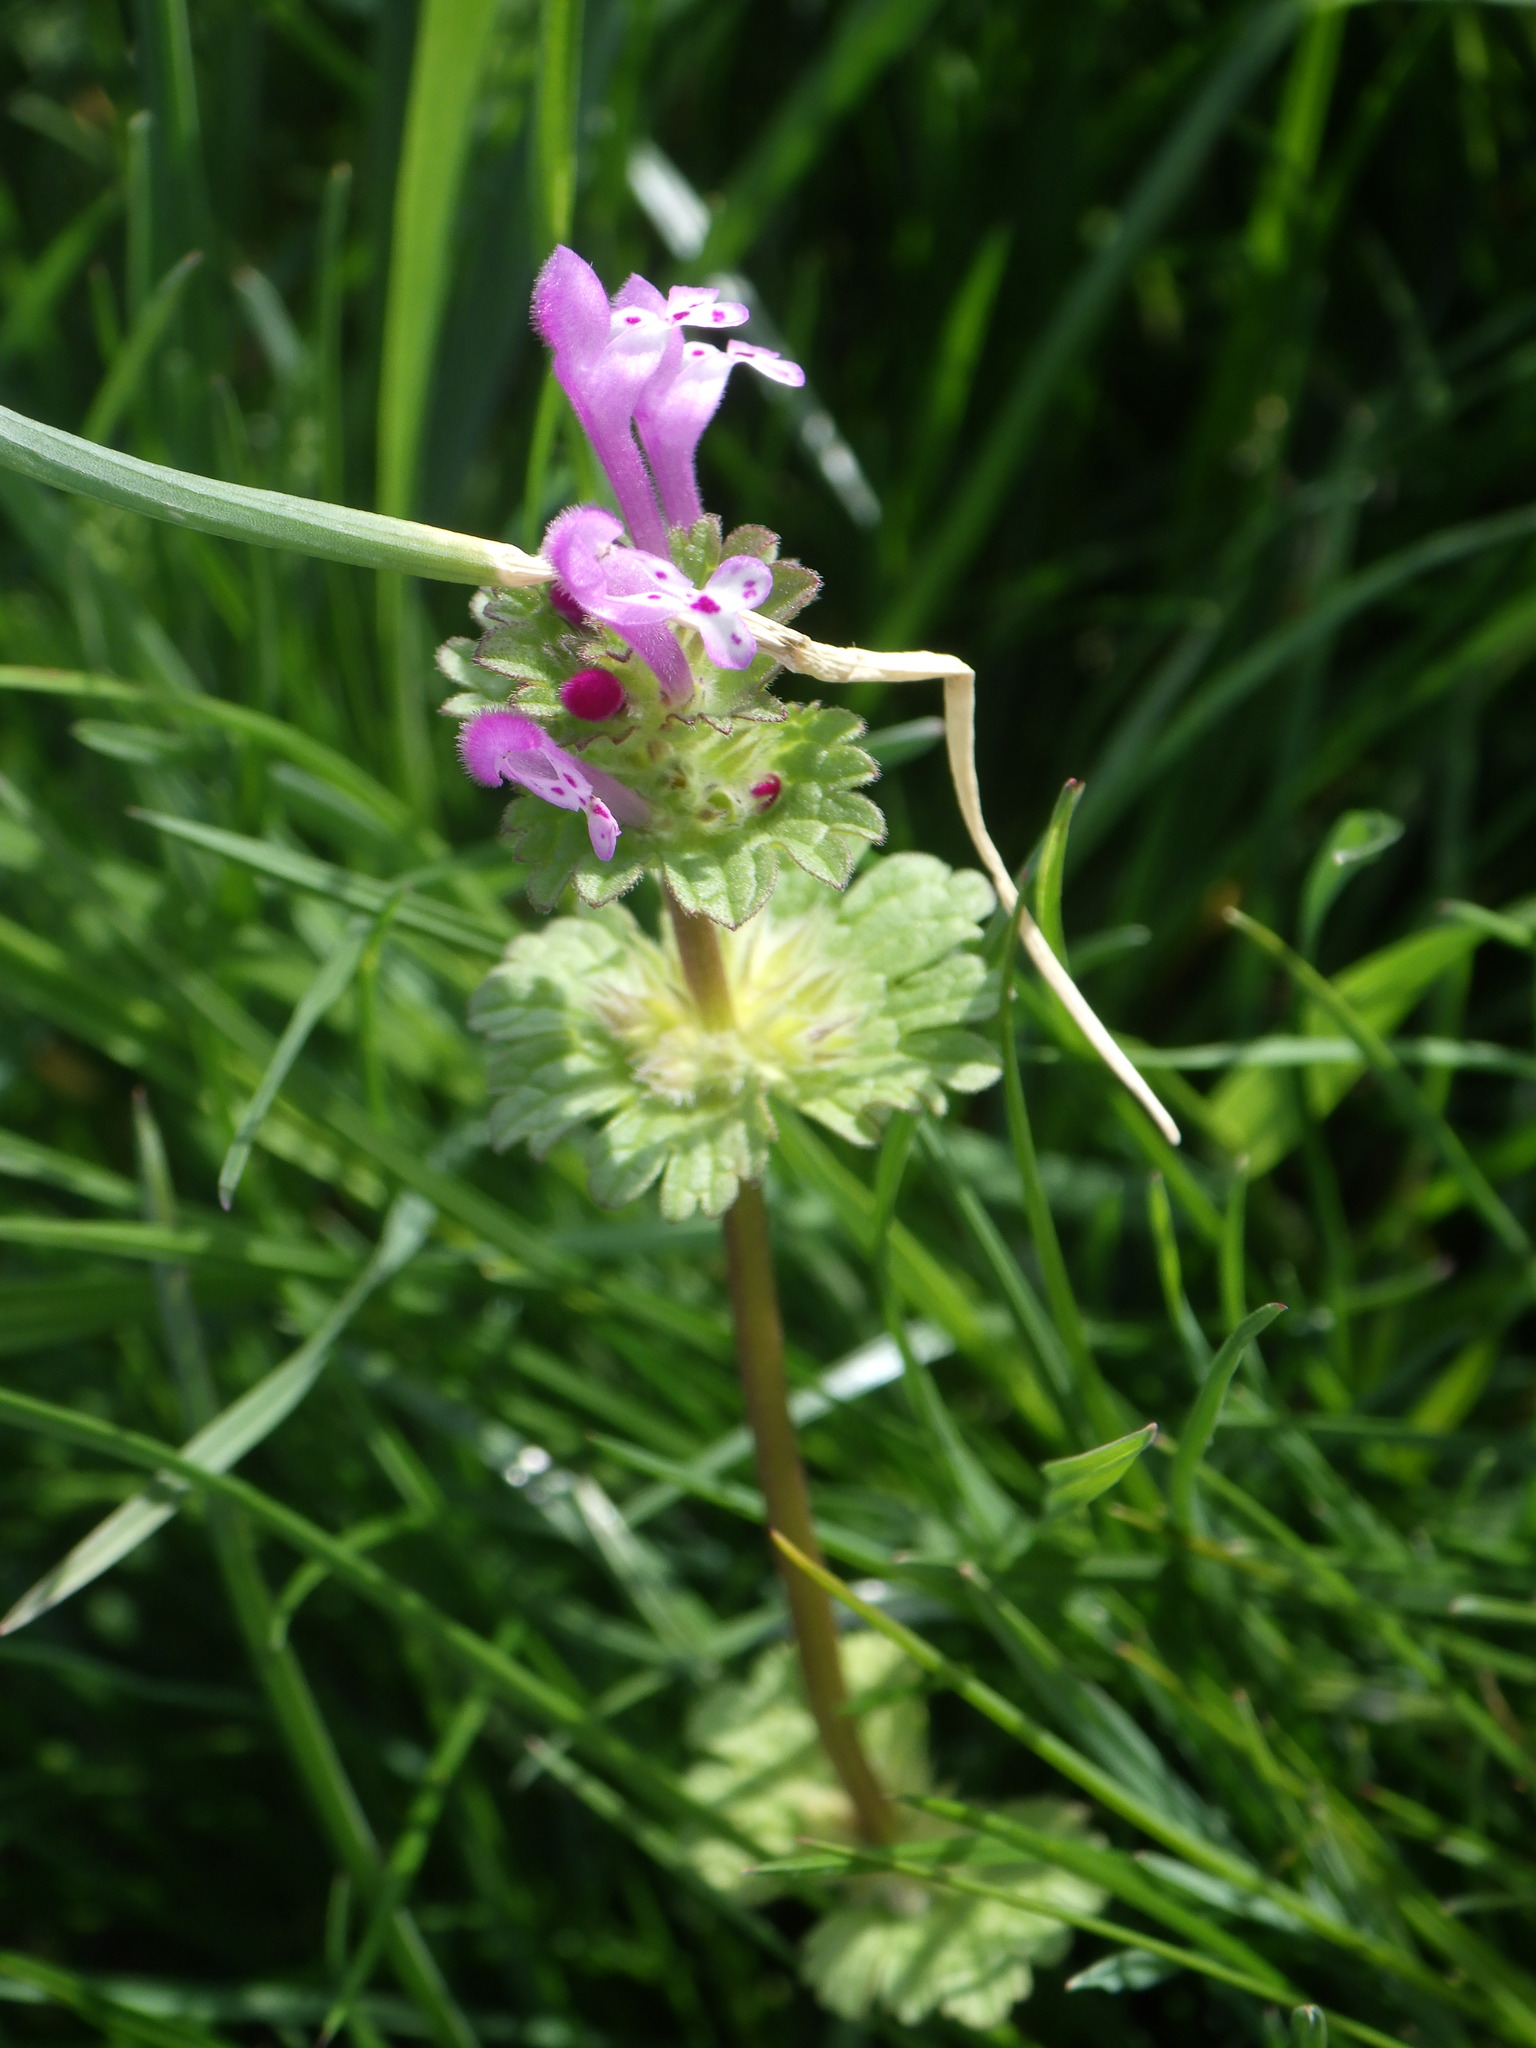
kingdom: Plantae
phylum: Tracheophyta
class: Magnoliopsida
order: Lamiales
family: Lamiaceae
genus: Lamium
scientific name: Lamium amplexicaule
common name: Henbit dead-nettle
